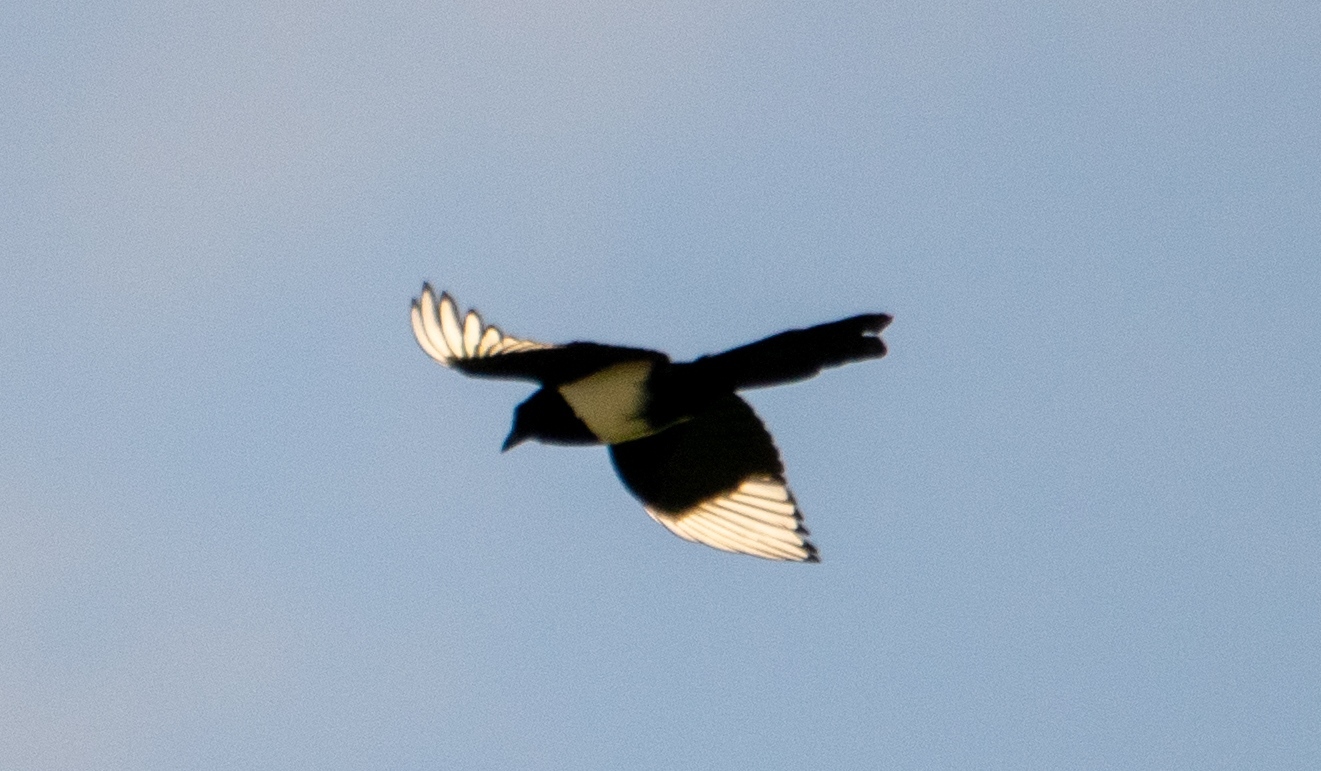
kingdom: Animalia
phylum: Chordata
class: Aves
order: Passeriformes
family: Corvidae
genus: Pica
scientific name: Pica pica
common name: Eurasian magpie
